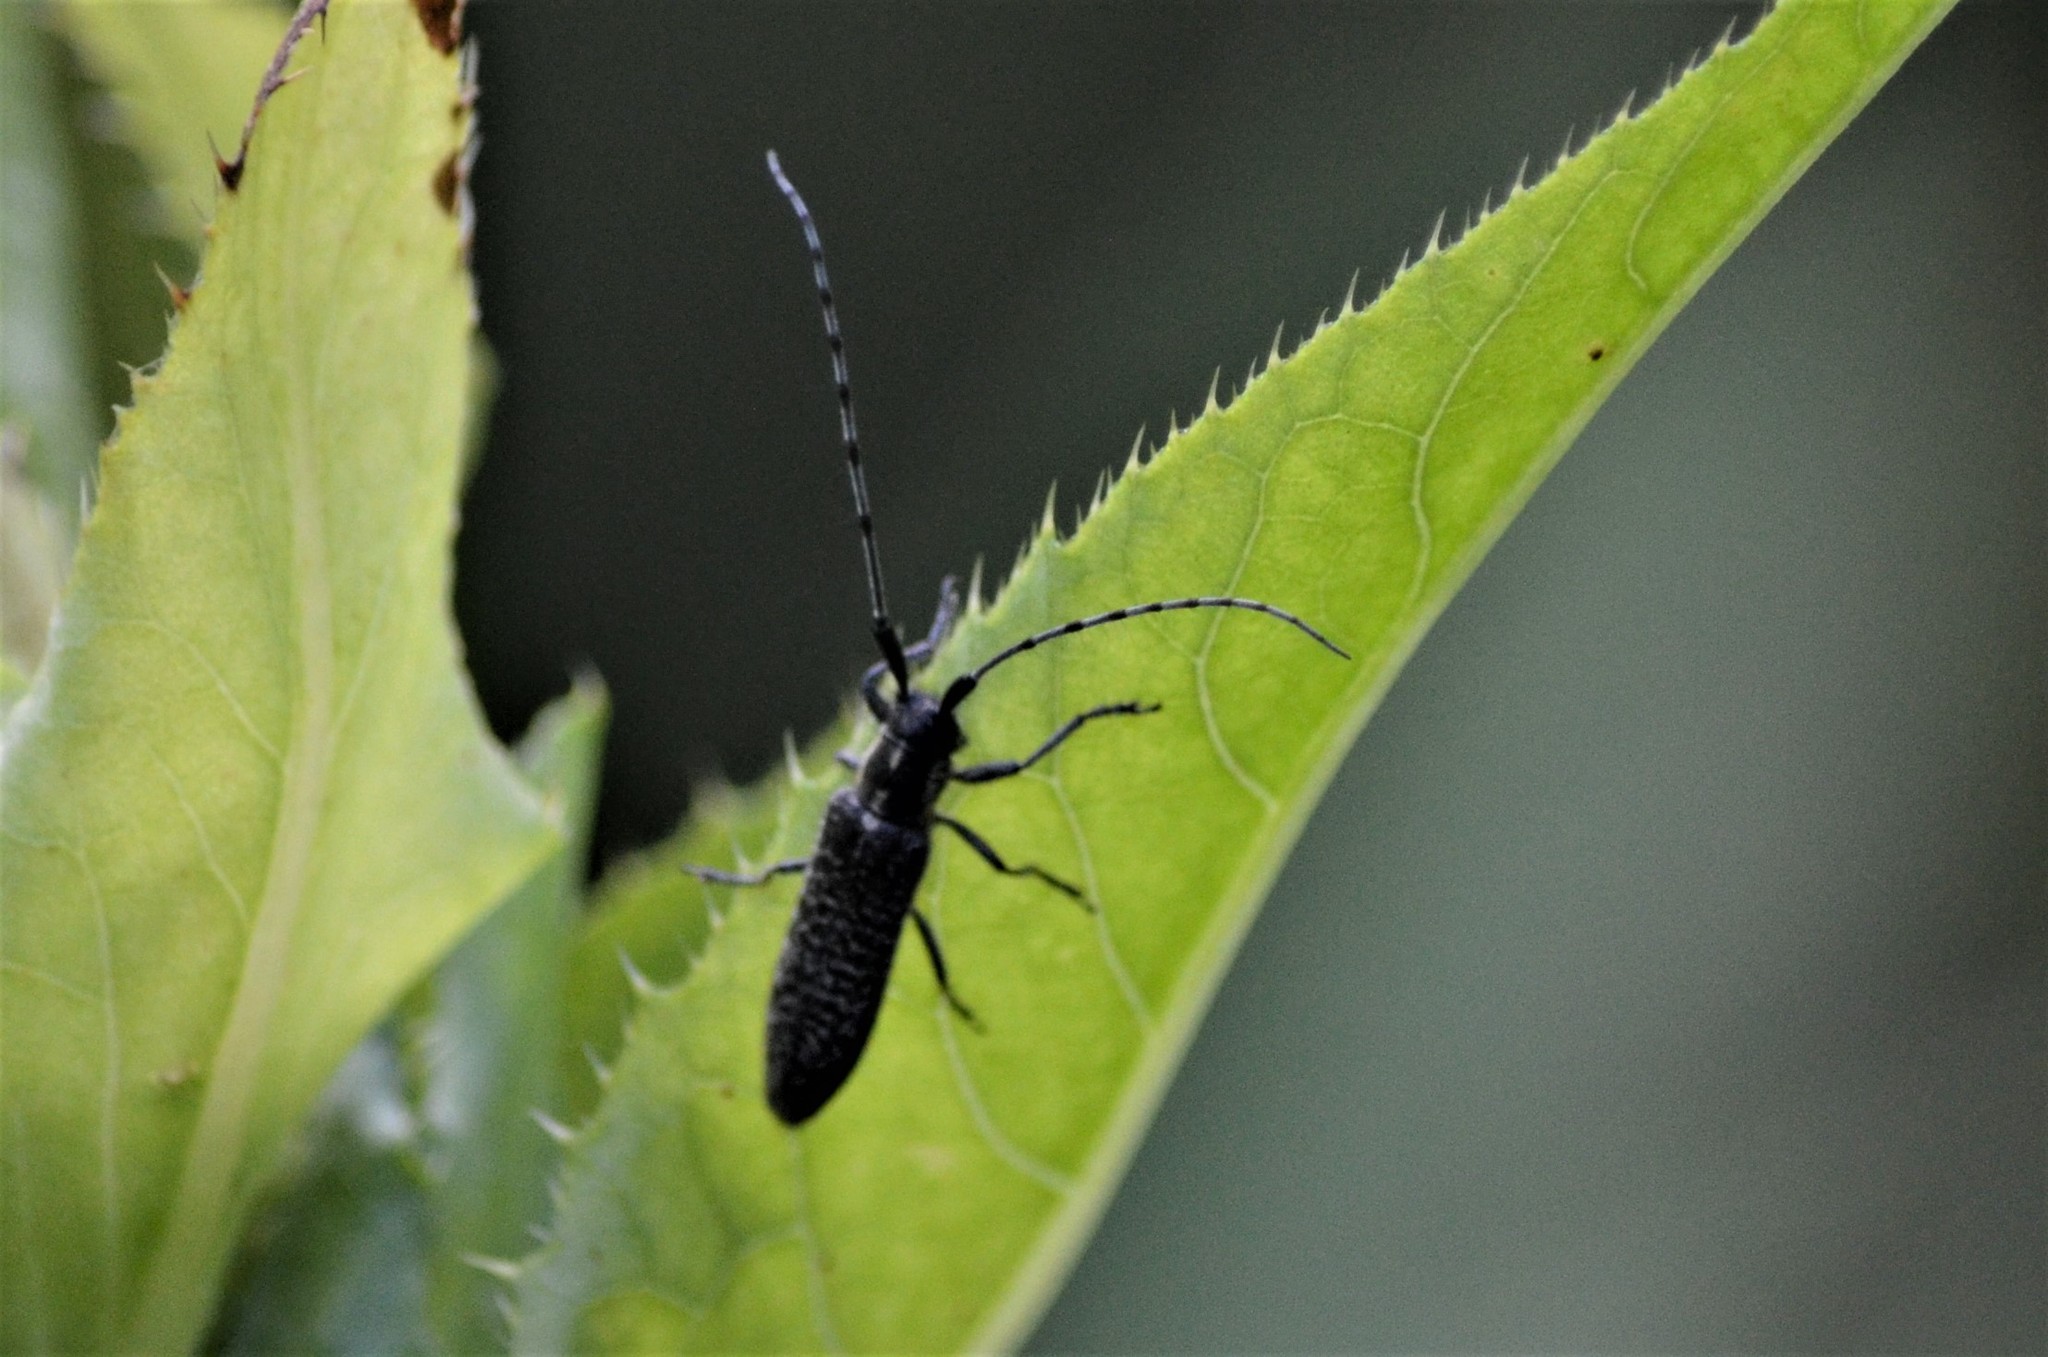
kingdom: Animalia
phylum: Arthropoda
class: Insecta
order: Coleoptera
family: Cerambycidae
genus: Agapanthia
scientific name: Agapanthia villosoviridescens
